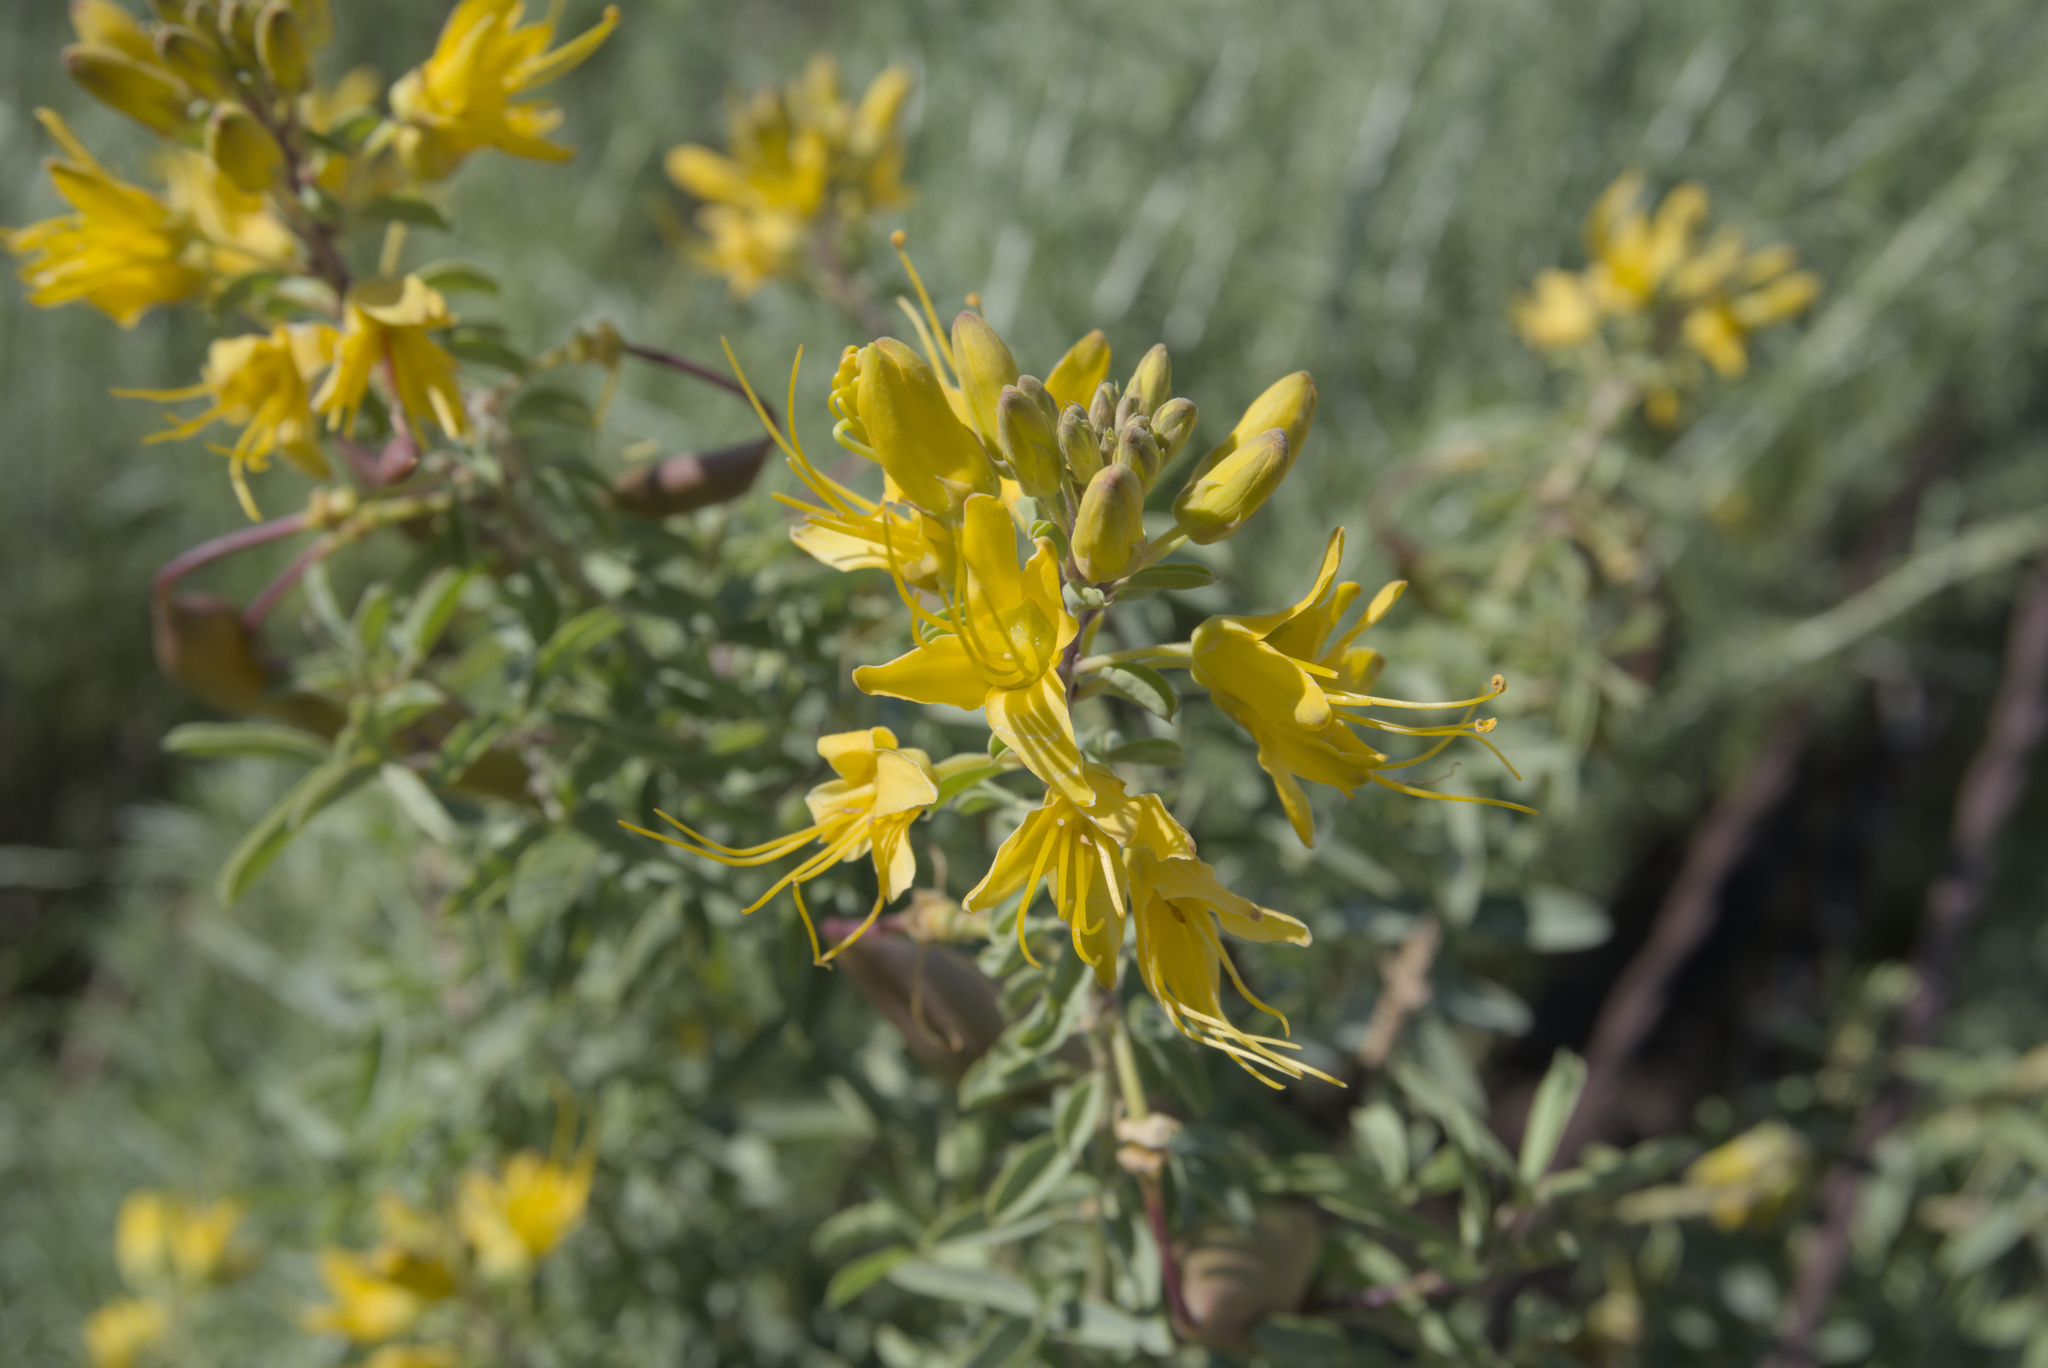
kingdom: Plantae
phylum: Tracheophyta
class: Magnoliopsida
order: Brassicales
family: Cleomaceae
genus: Cleomella
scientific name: Cleomella arborea
